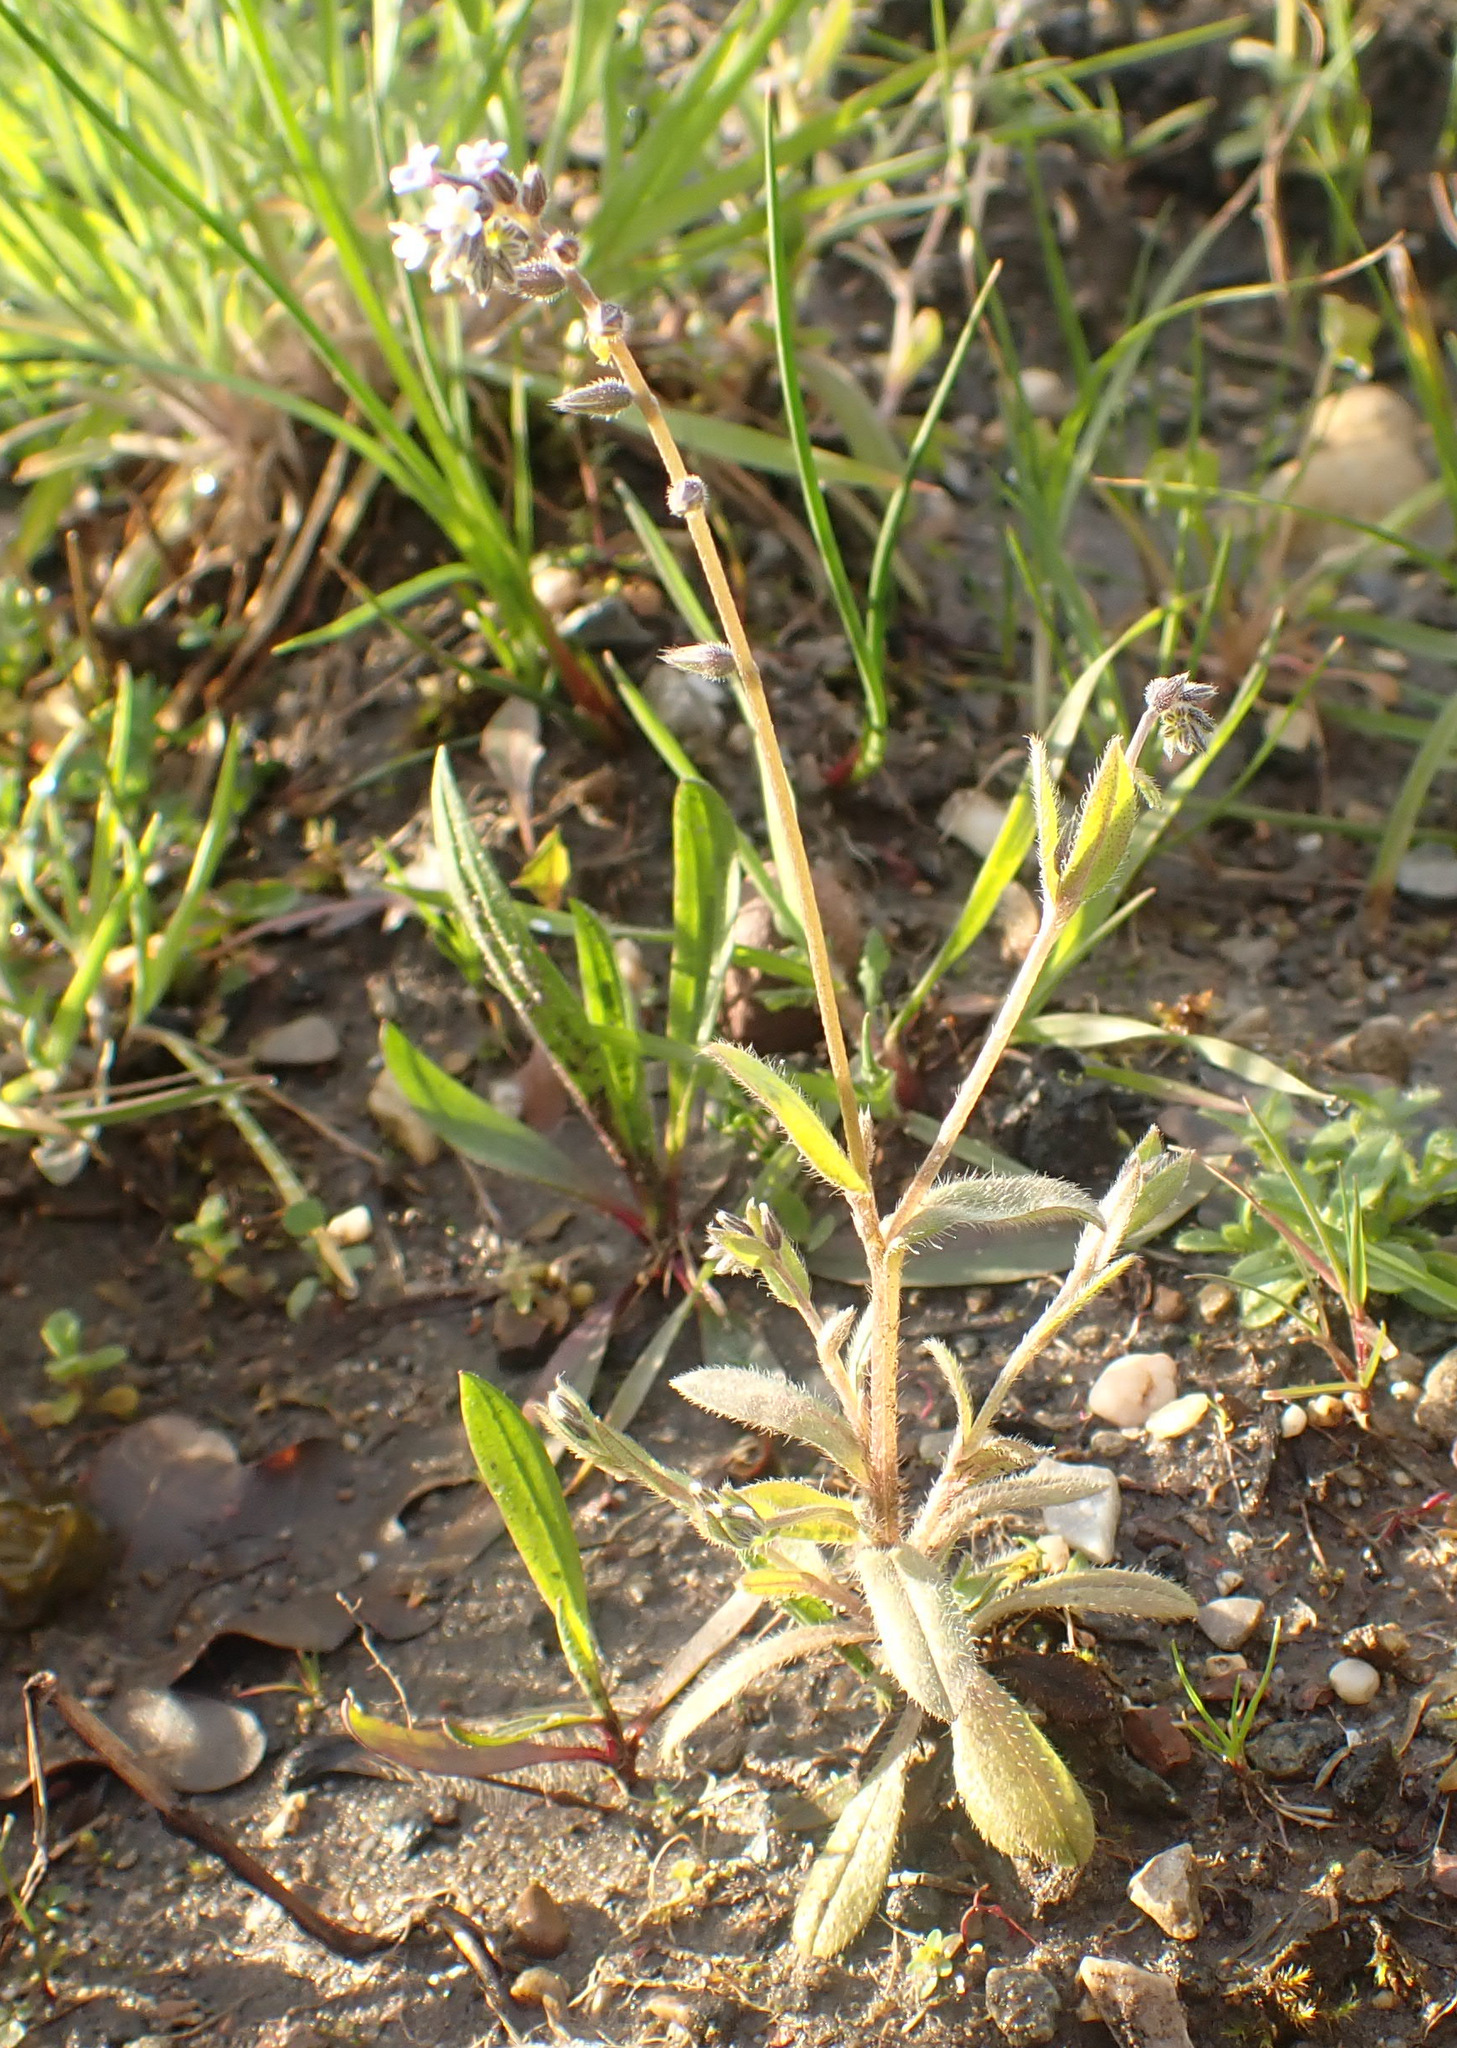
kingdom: Plantae
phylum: Tracheophyta
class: Magnoliopsida
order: Boraginales
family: Boraginaceae
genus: Myosotis
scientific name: Myosotis discolor
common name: Changing forget-me-not
